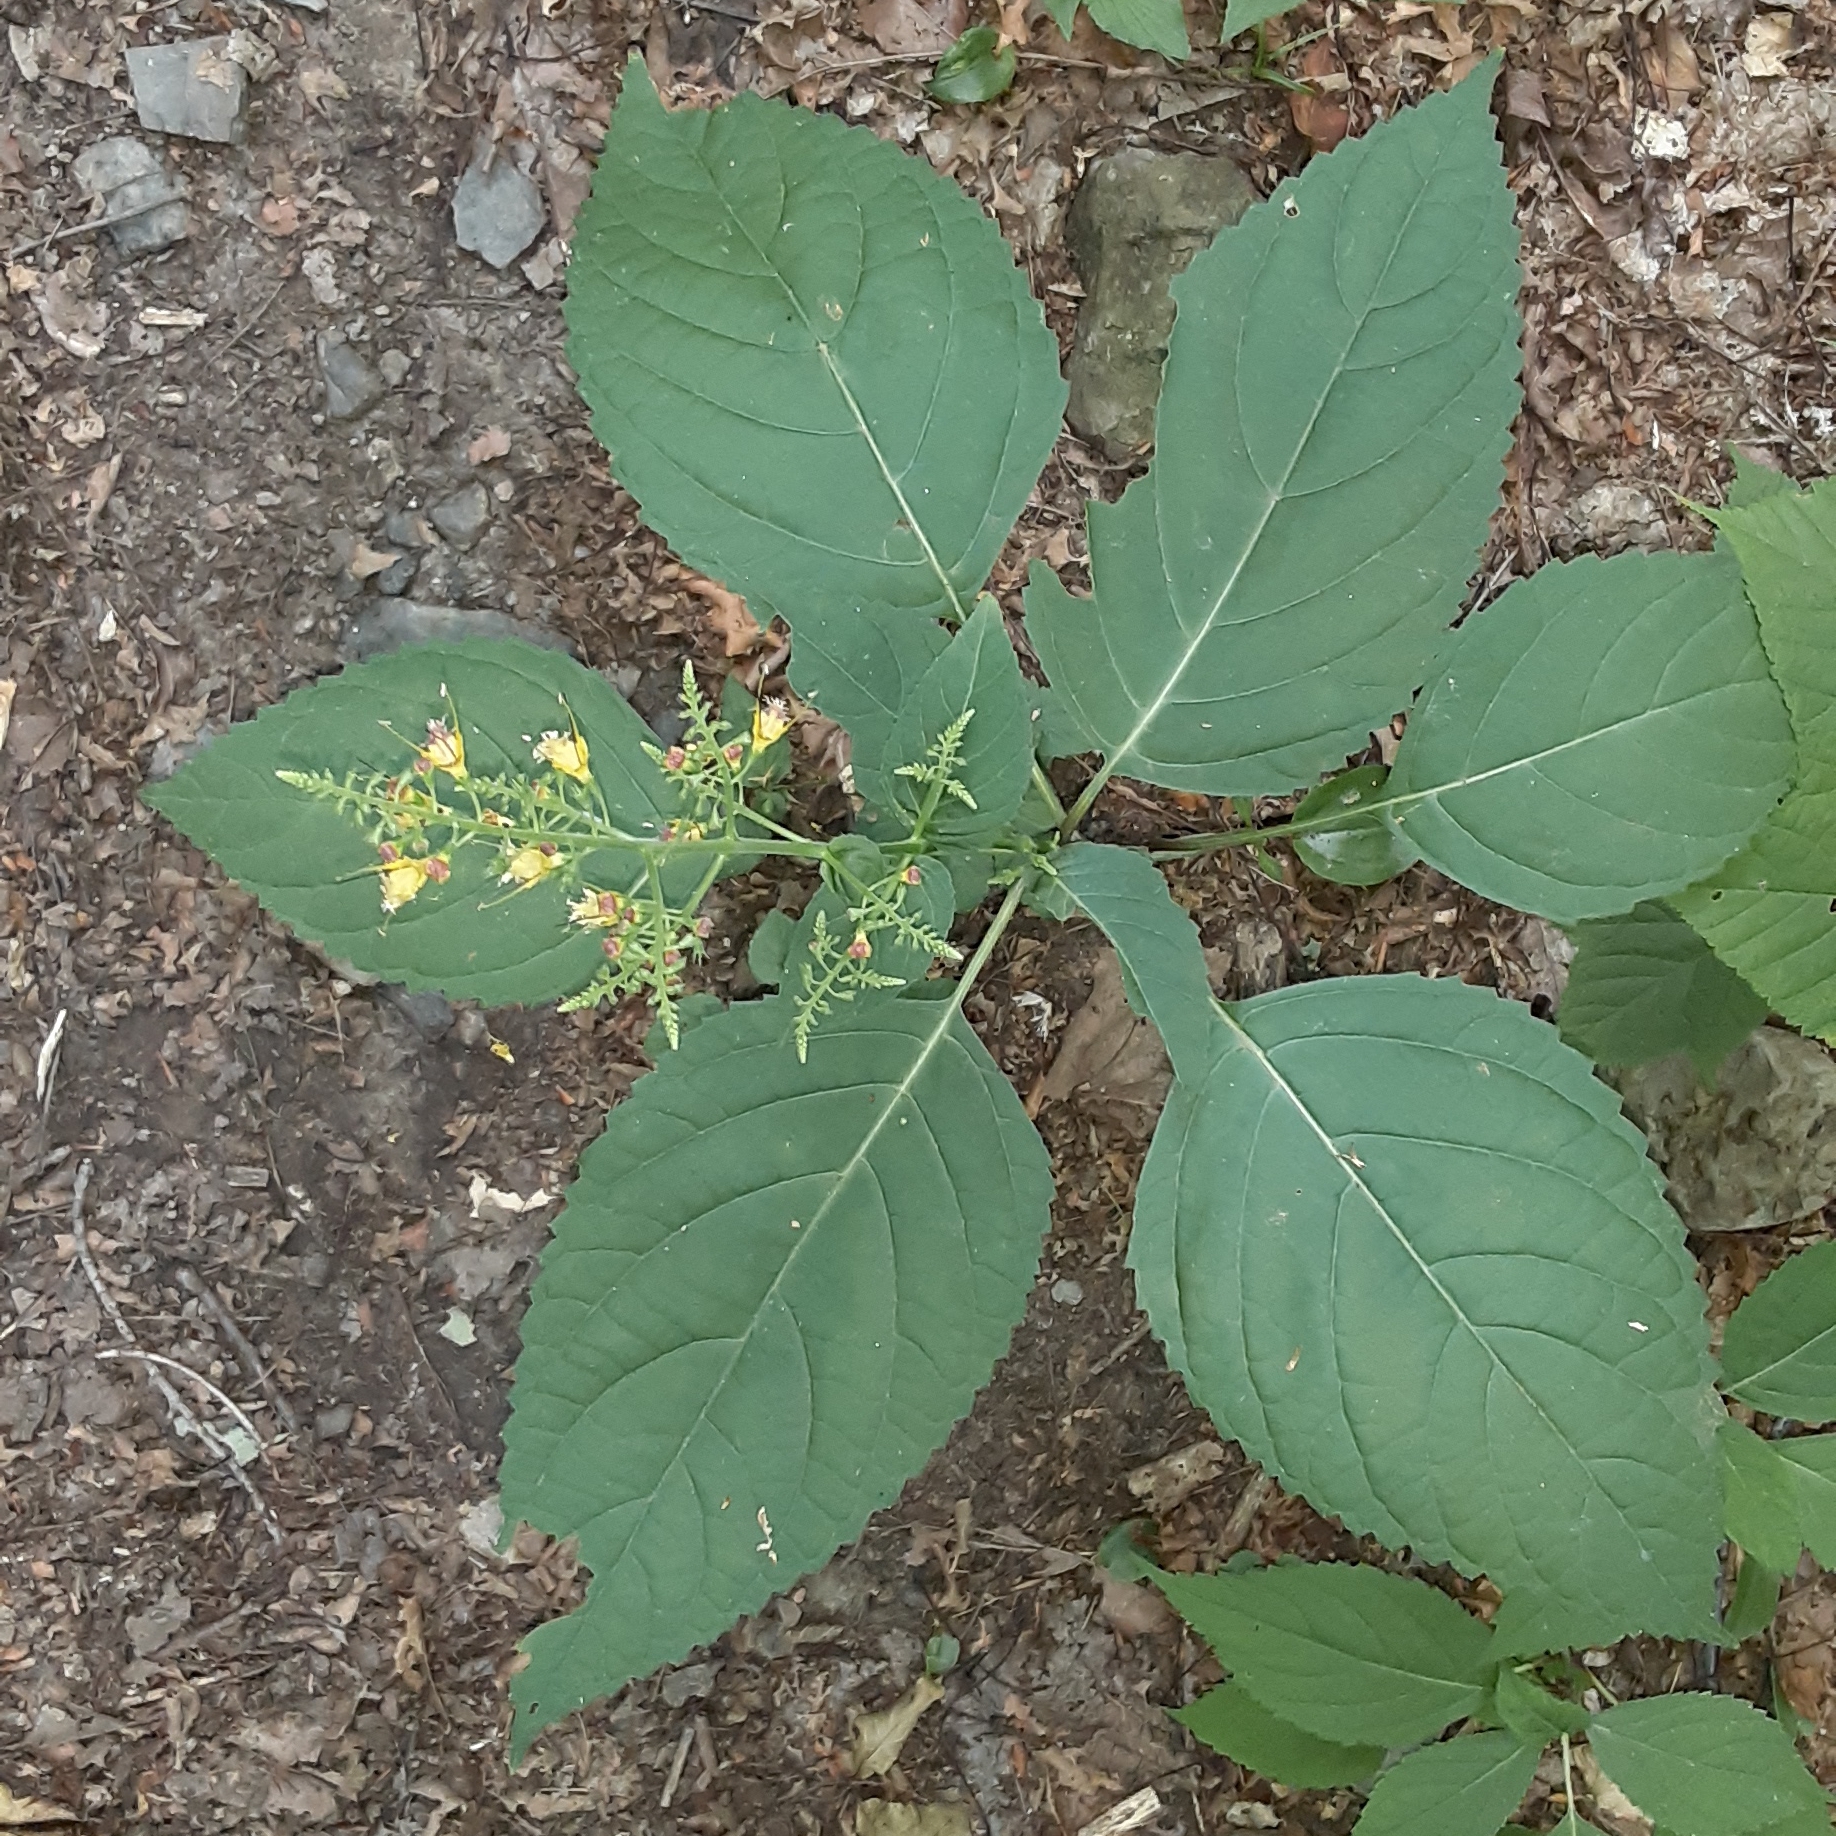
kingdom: Plantae
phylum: Tracheophyta
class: Magnoliopsida
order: Lamiales
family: Lamiaceae
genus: Collinsonia
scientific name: Collinsonia canadensis
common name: Northern horsebalm
